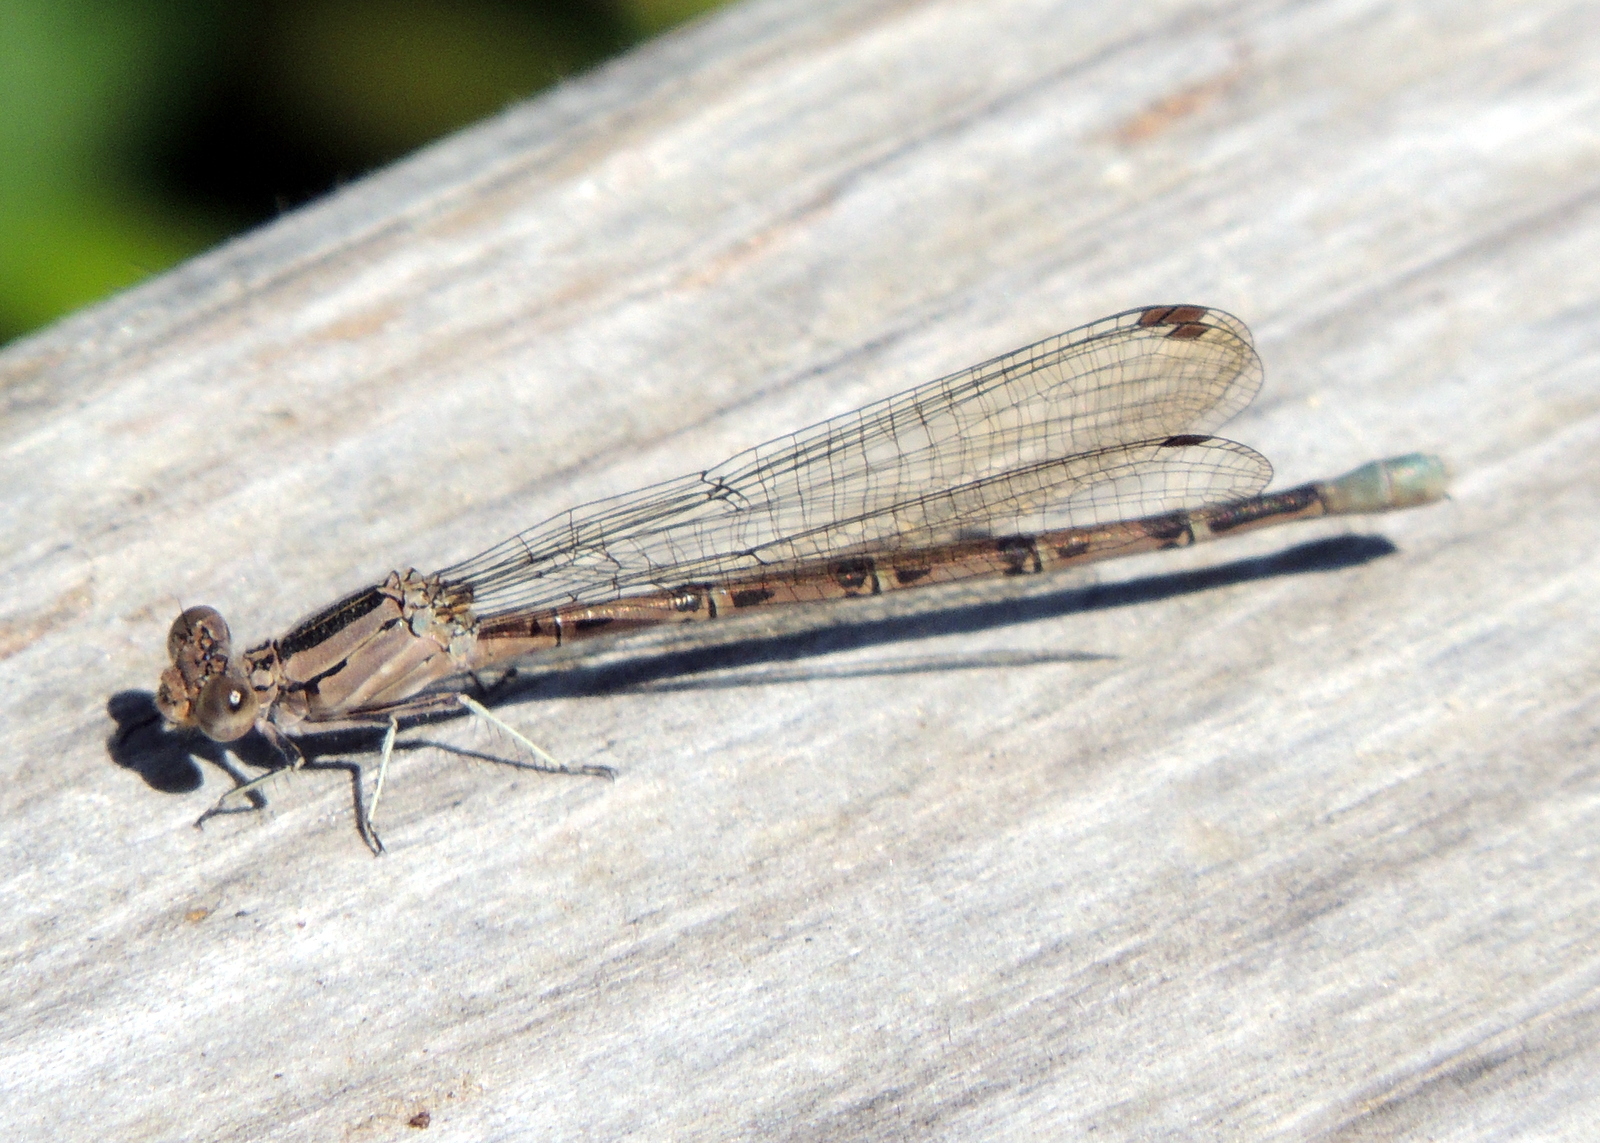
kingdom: Animalia
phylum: Arthropoda
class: Insecta
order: Odonata
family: Coenagrionidae
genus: Argia
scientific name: Argia vivida
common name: Vivid dancer
